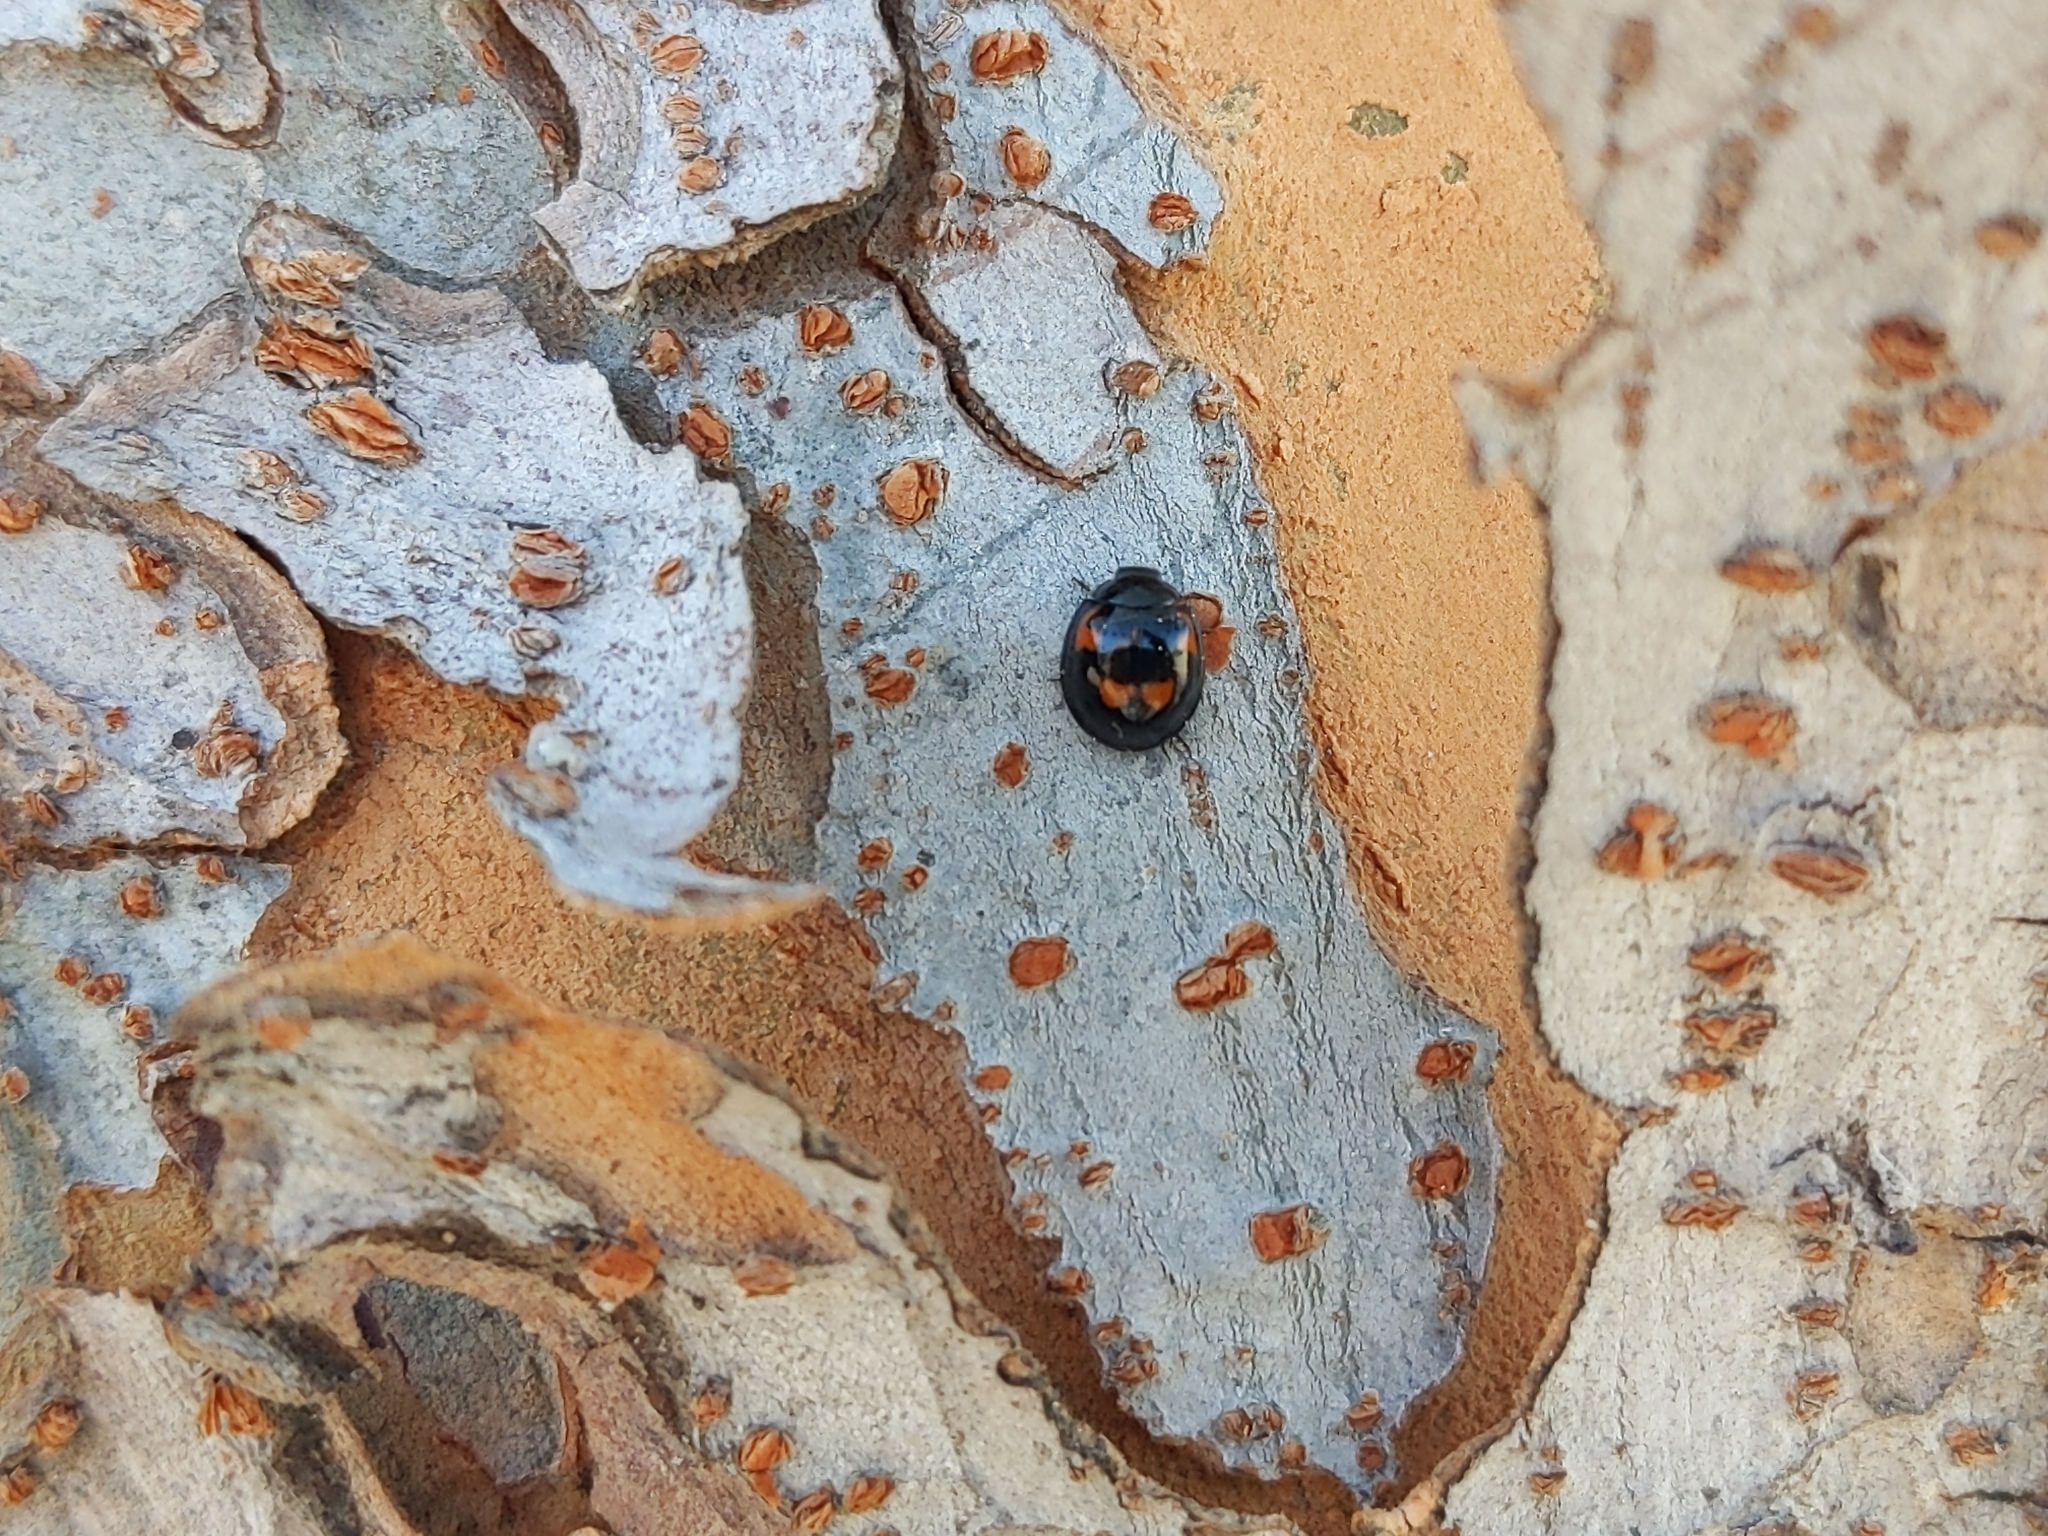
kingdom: Animalia
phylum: Arthropoda
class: Insecta
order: Coleoptera
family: Coccinellidae
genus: Brumus
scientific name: Brumus quadripustulatus
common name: Ladybird beetle
